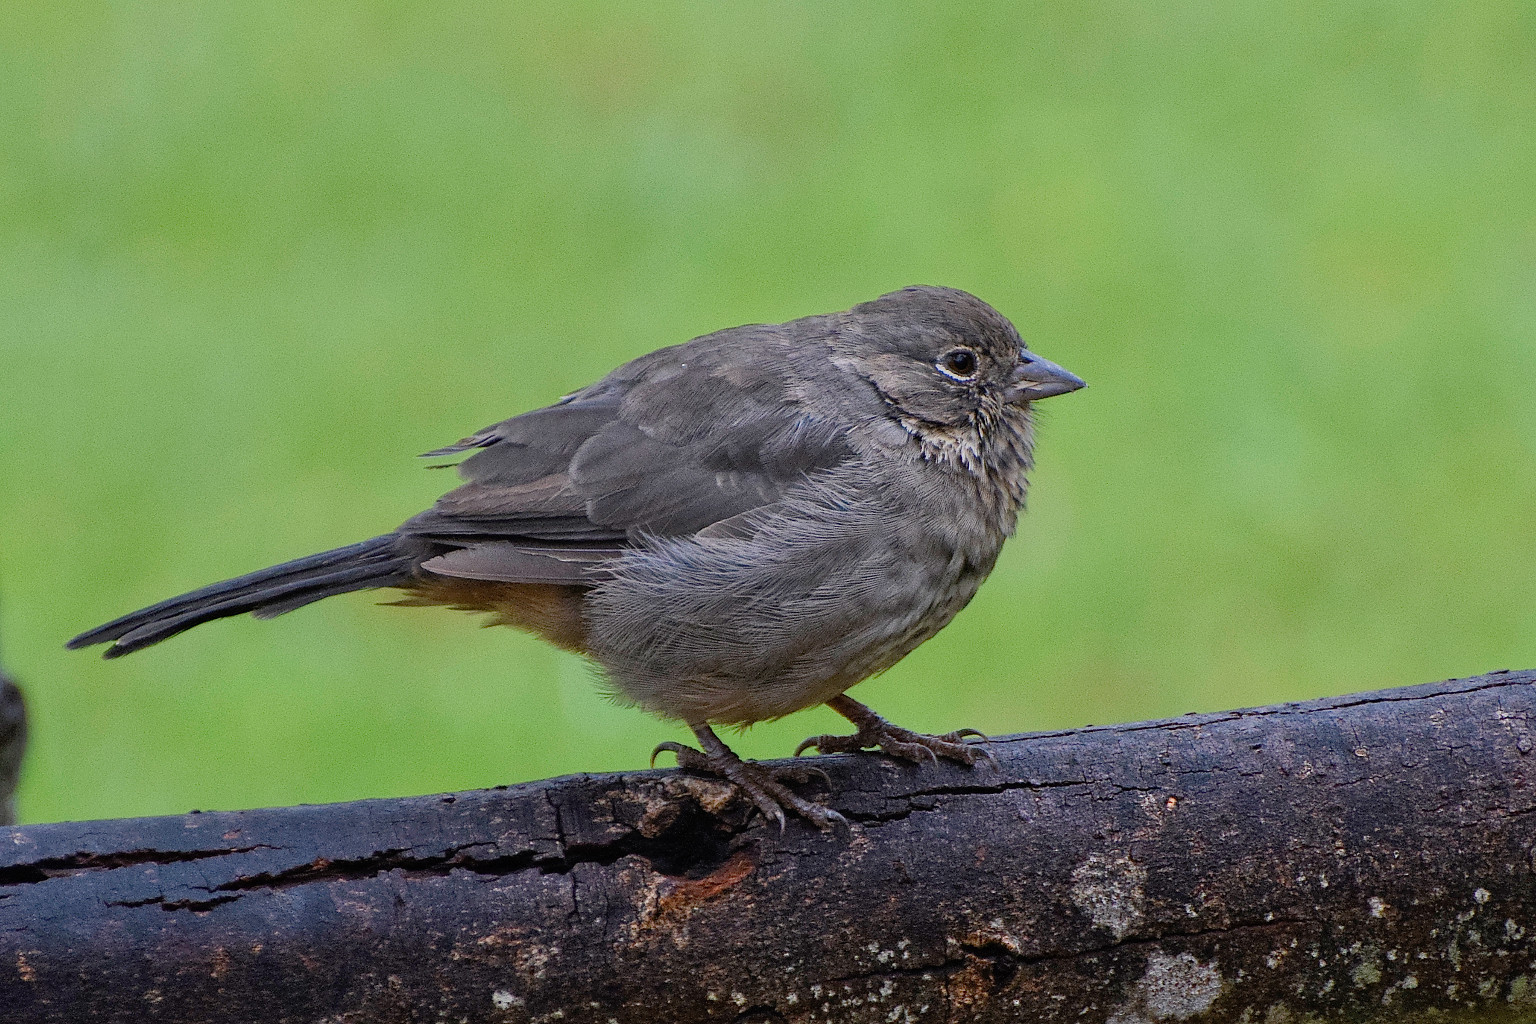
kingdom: Animalia
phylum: Chordata
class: Aves
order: Passeriformes
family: Passerellidae
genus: Melozone
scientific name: Melozone fusca
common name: Canyon towhee
